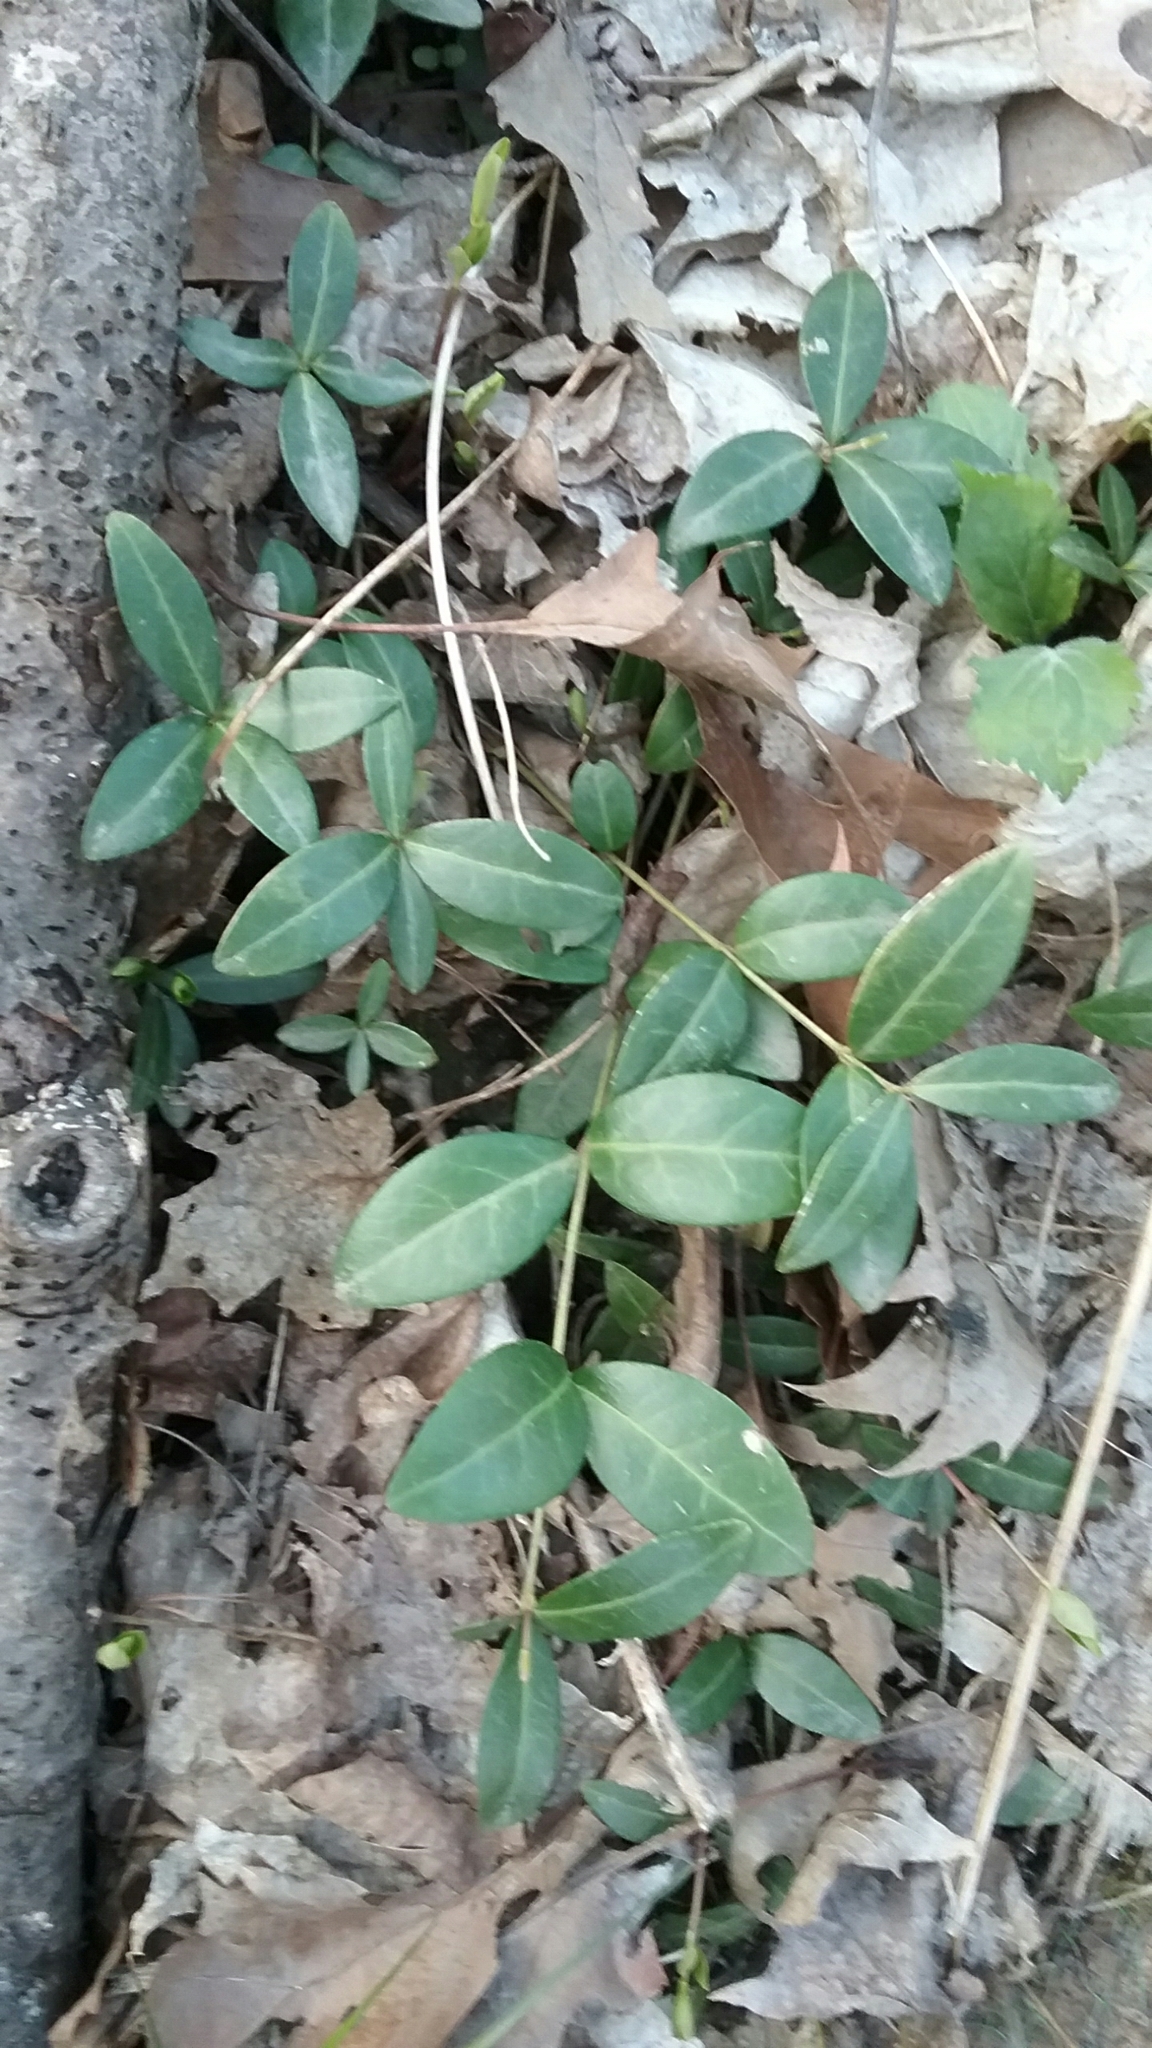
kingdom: Plantae
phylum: Tracheophyta
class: Magnoliopsida
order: Gentianales
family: Apocynaceae
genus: Vinca
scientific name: Vinca minor
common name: Lesser periwinkle
